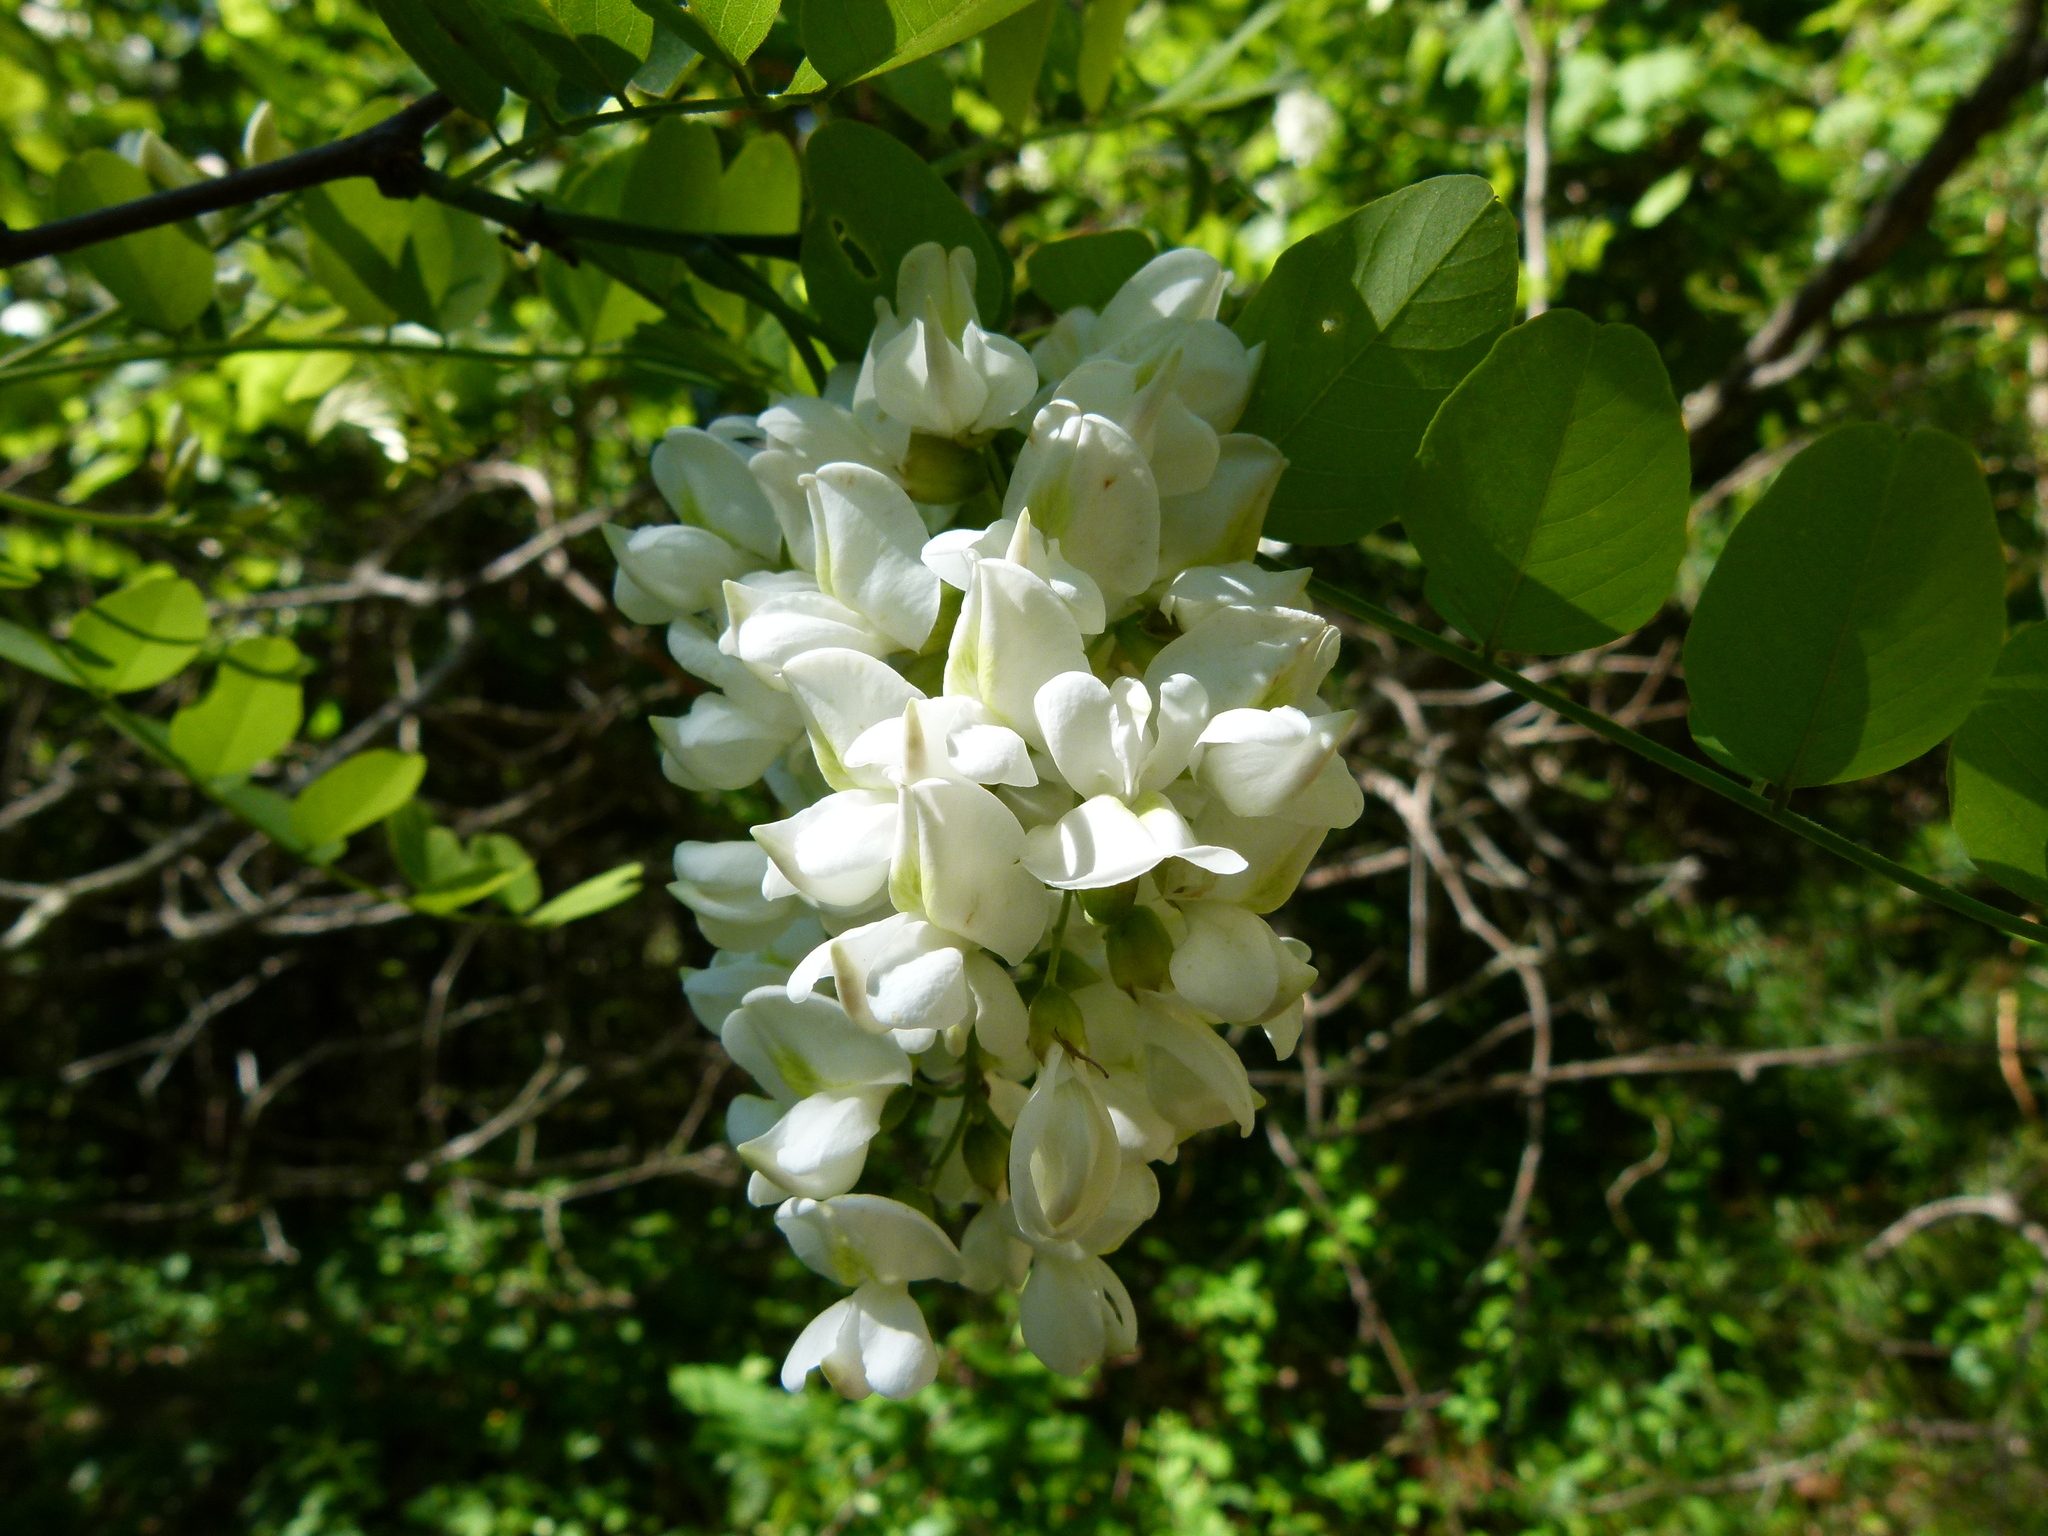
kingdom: Plantae
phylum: Tracheophyta
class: Magnoliopsida
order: Fabales
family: Fabaceae
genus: Robinia
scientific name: Robinia pseudoacacia
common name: Black locust
